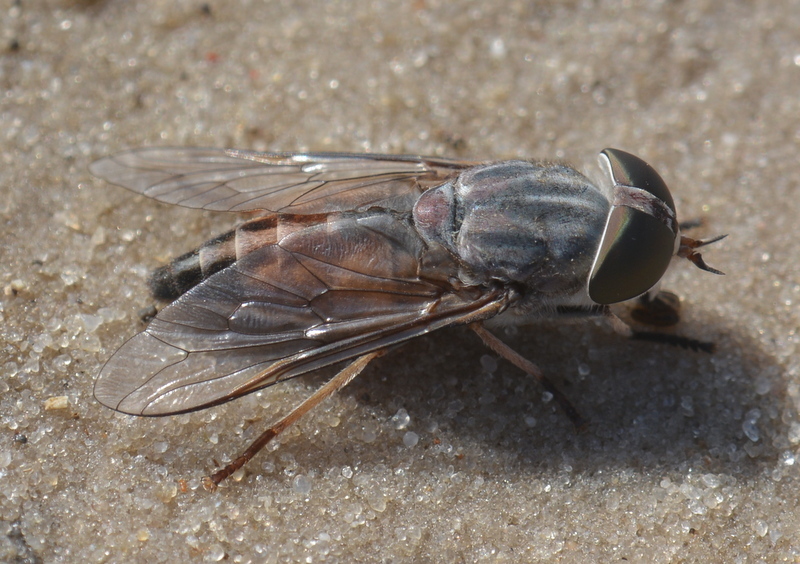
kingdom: Animalia
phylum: Arthropoda
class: Insecta
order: Diptera
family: Tabanidae
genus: Tabanus
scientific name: Tabanus taeniola
